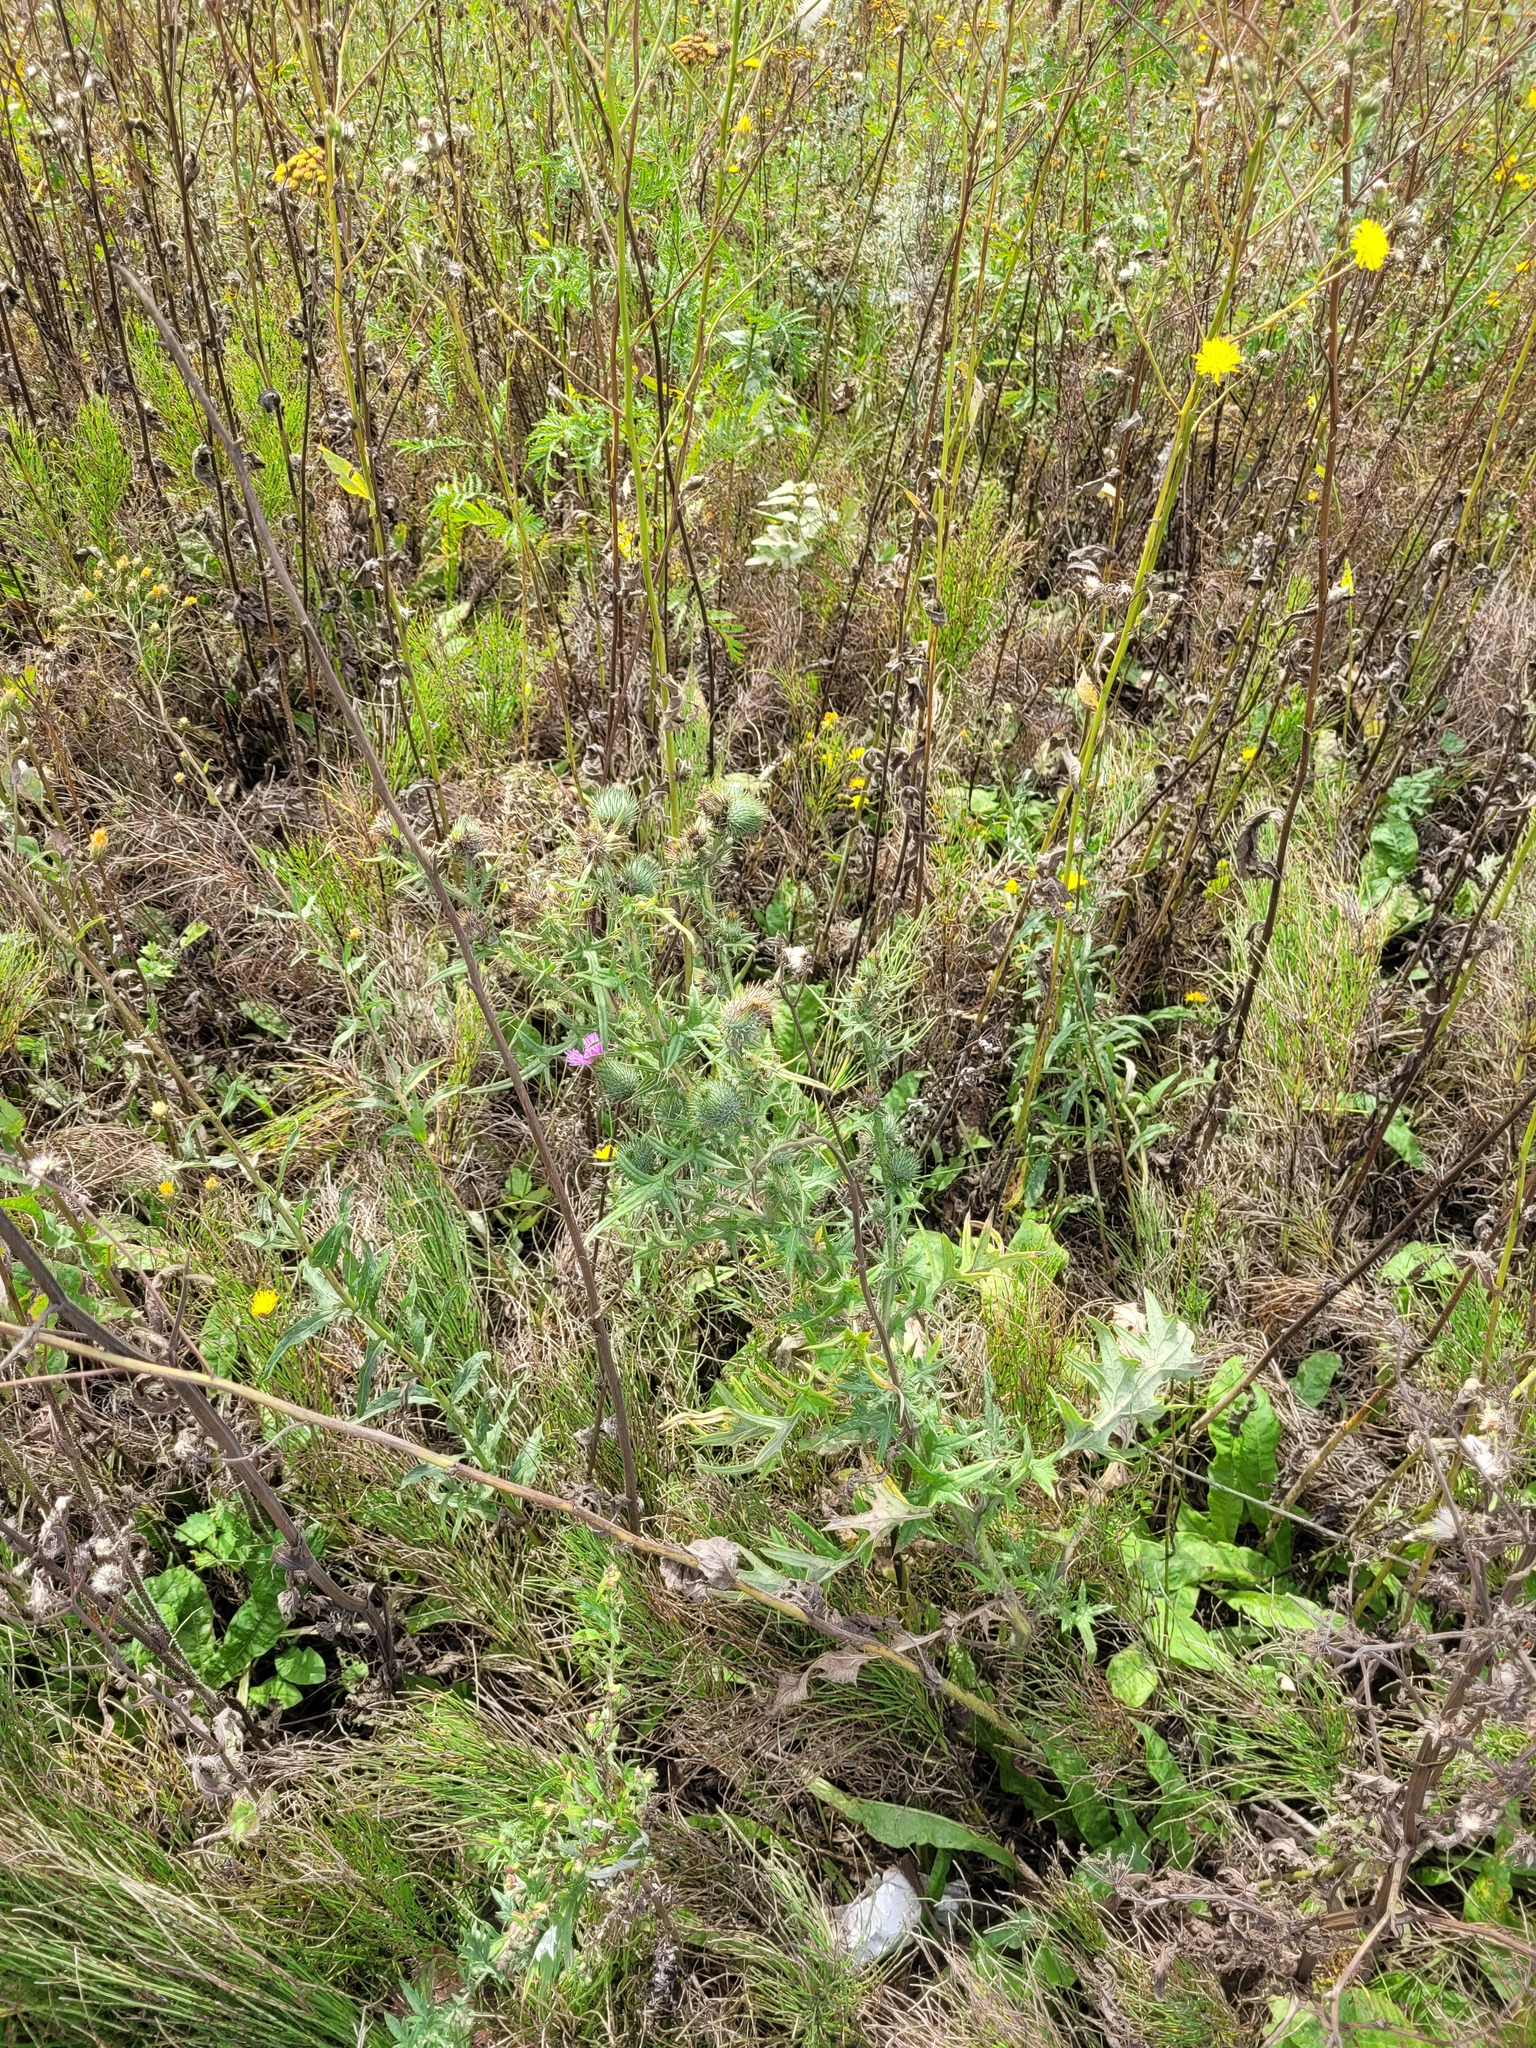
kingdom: Plantae
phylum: Tracheophyta
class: Magnoliopsida
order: Asterales
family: Asteraceae
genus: Cirsium
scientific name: Cirsium vulgare
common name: Bull thistle
